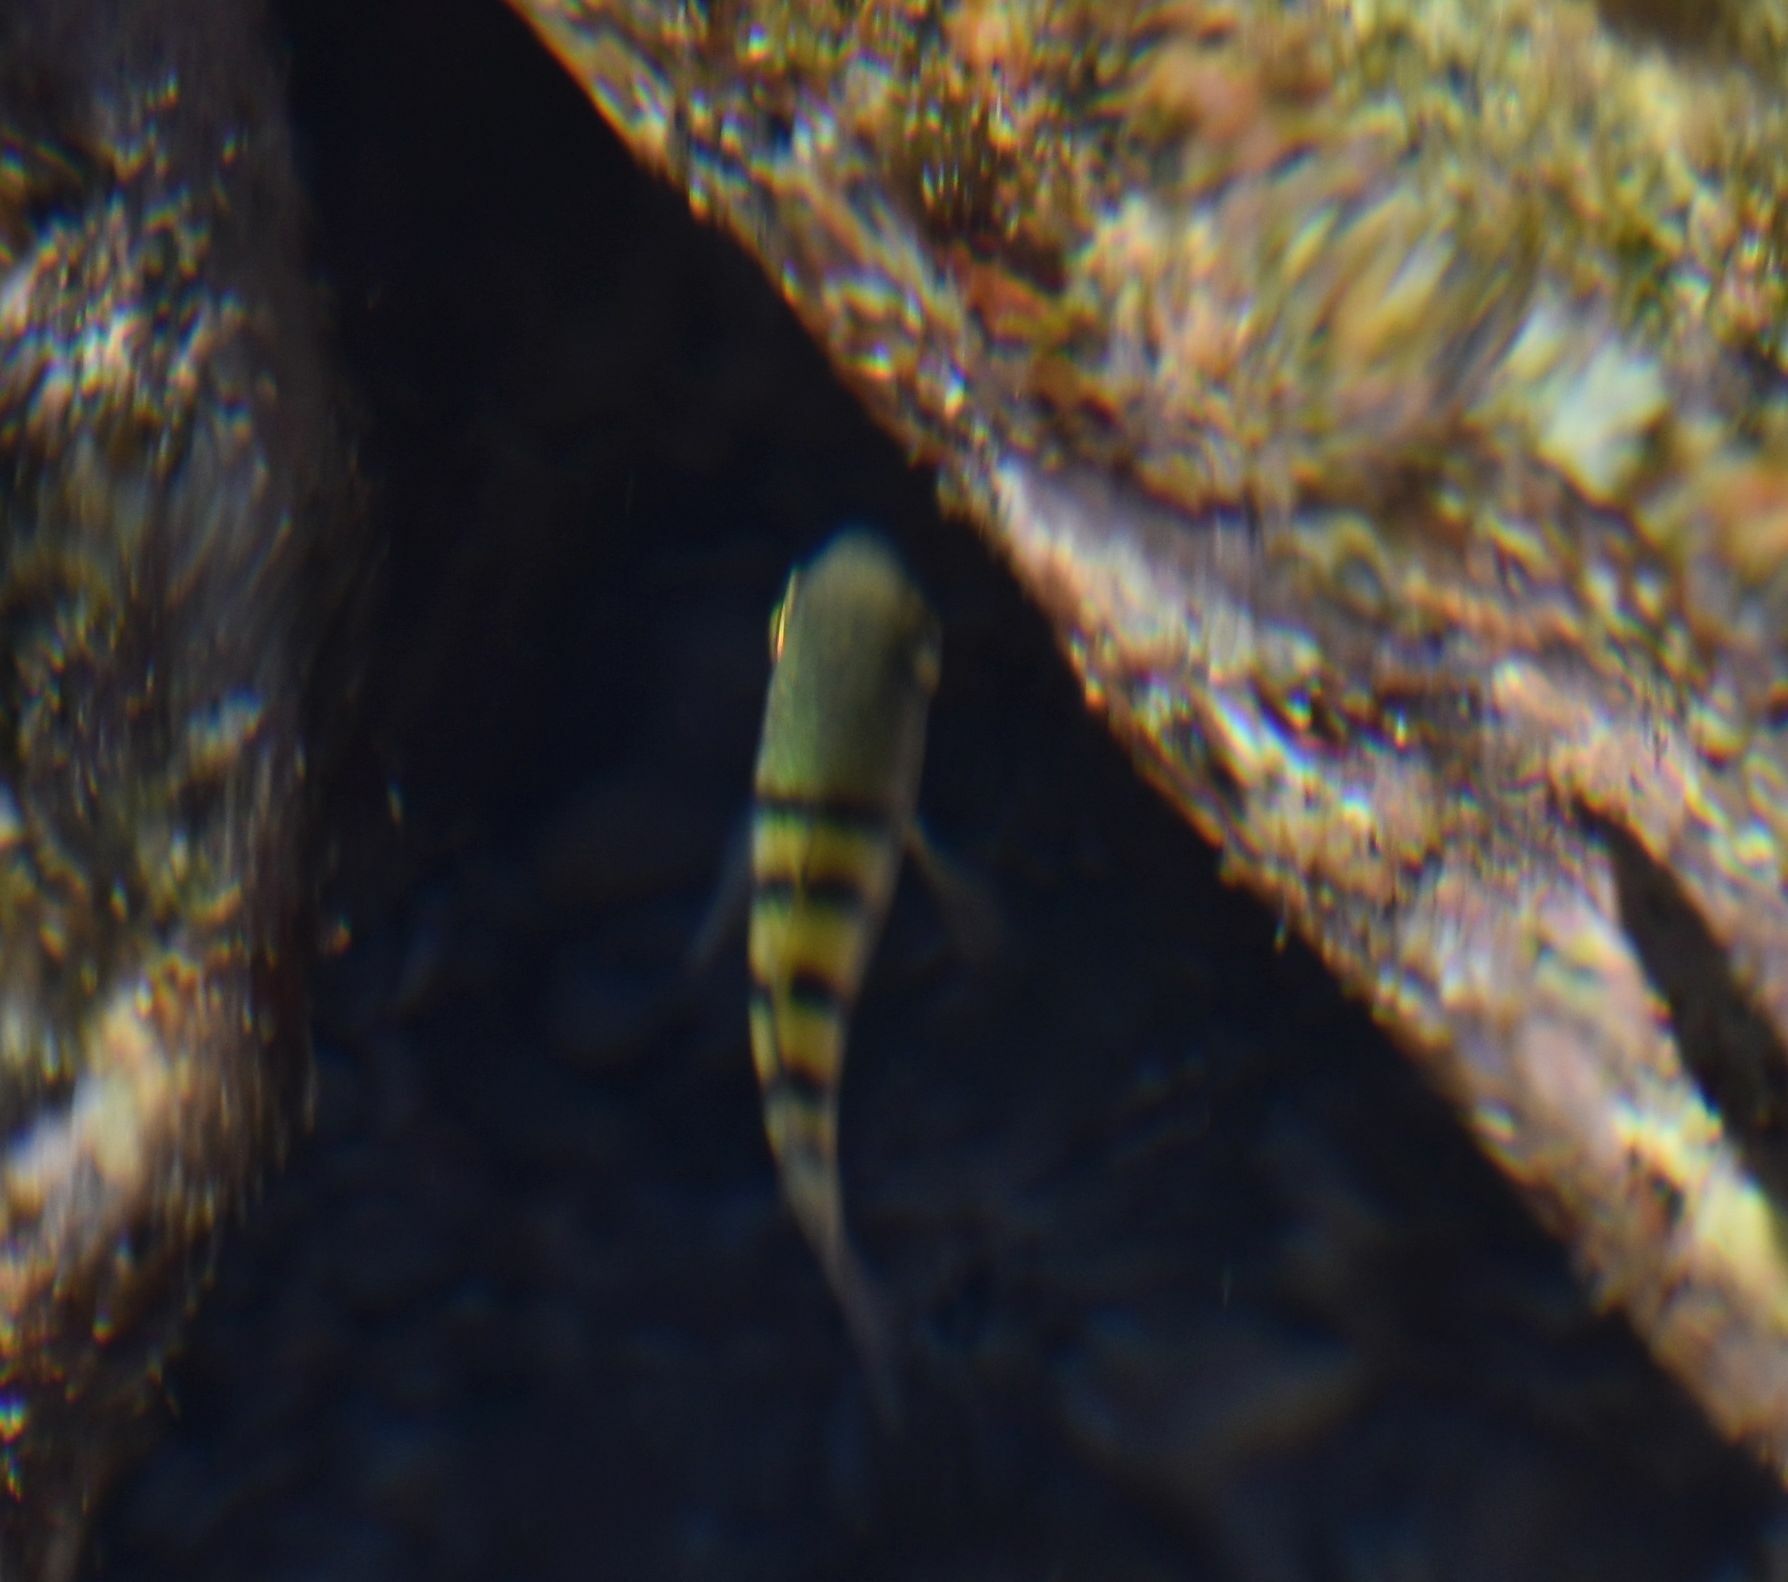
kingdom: Animalia
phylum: Chordata
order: Perciformes
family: Pomacentridae
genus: Abudefduf
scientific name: Abudefduf troschelii
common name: Panamic sergeant major
